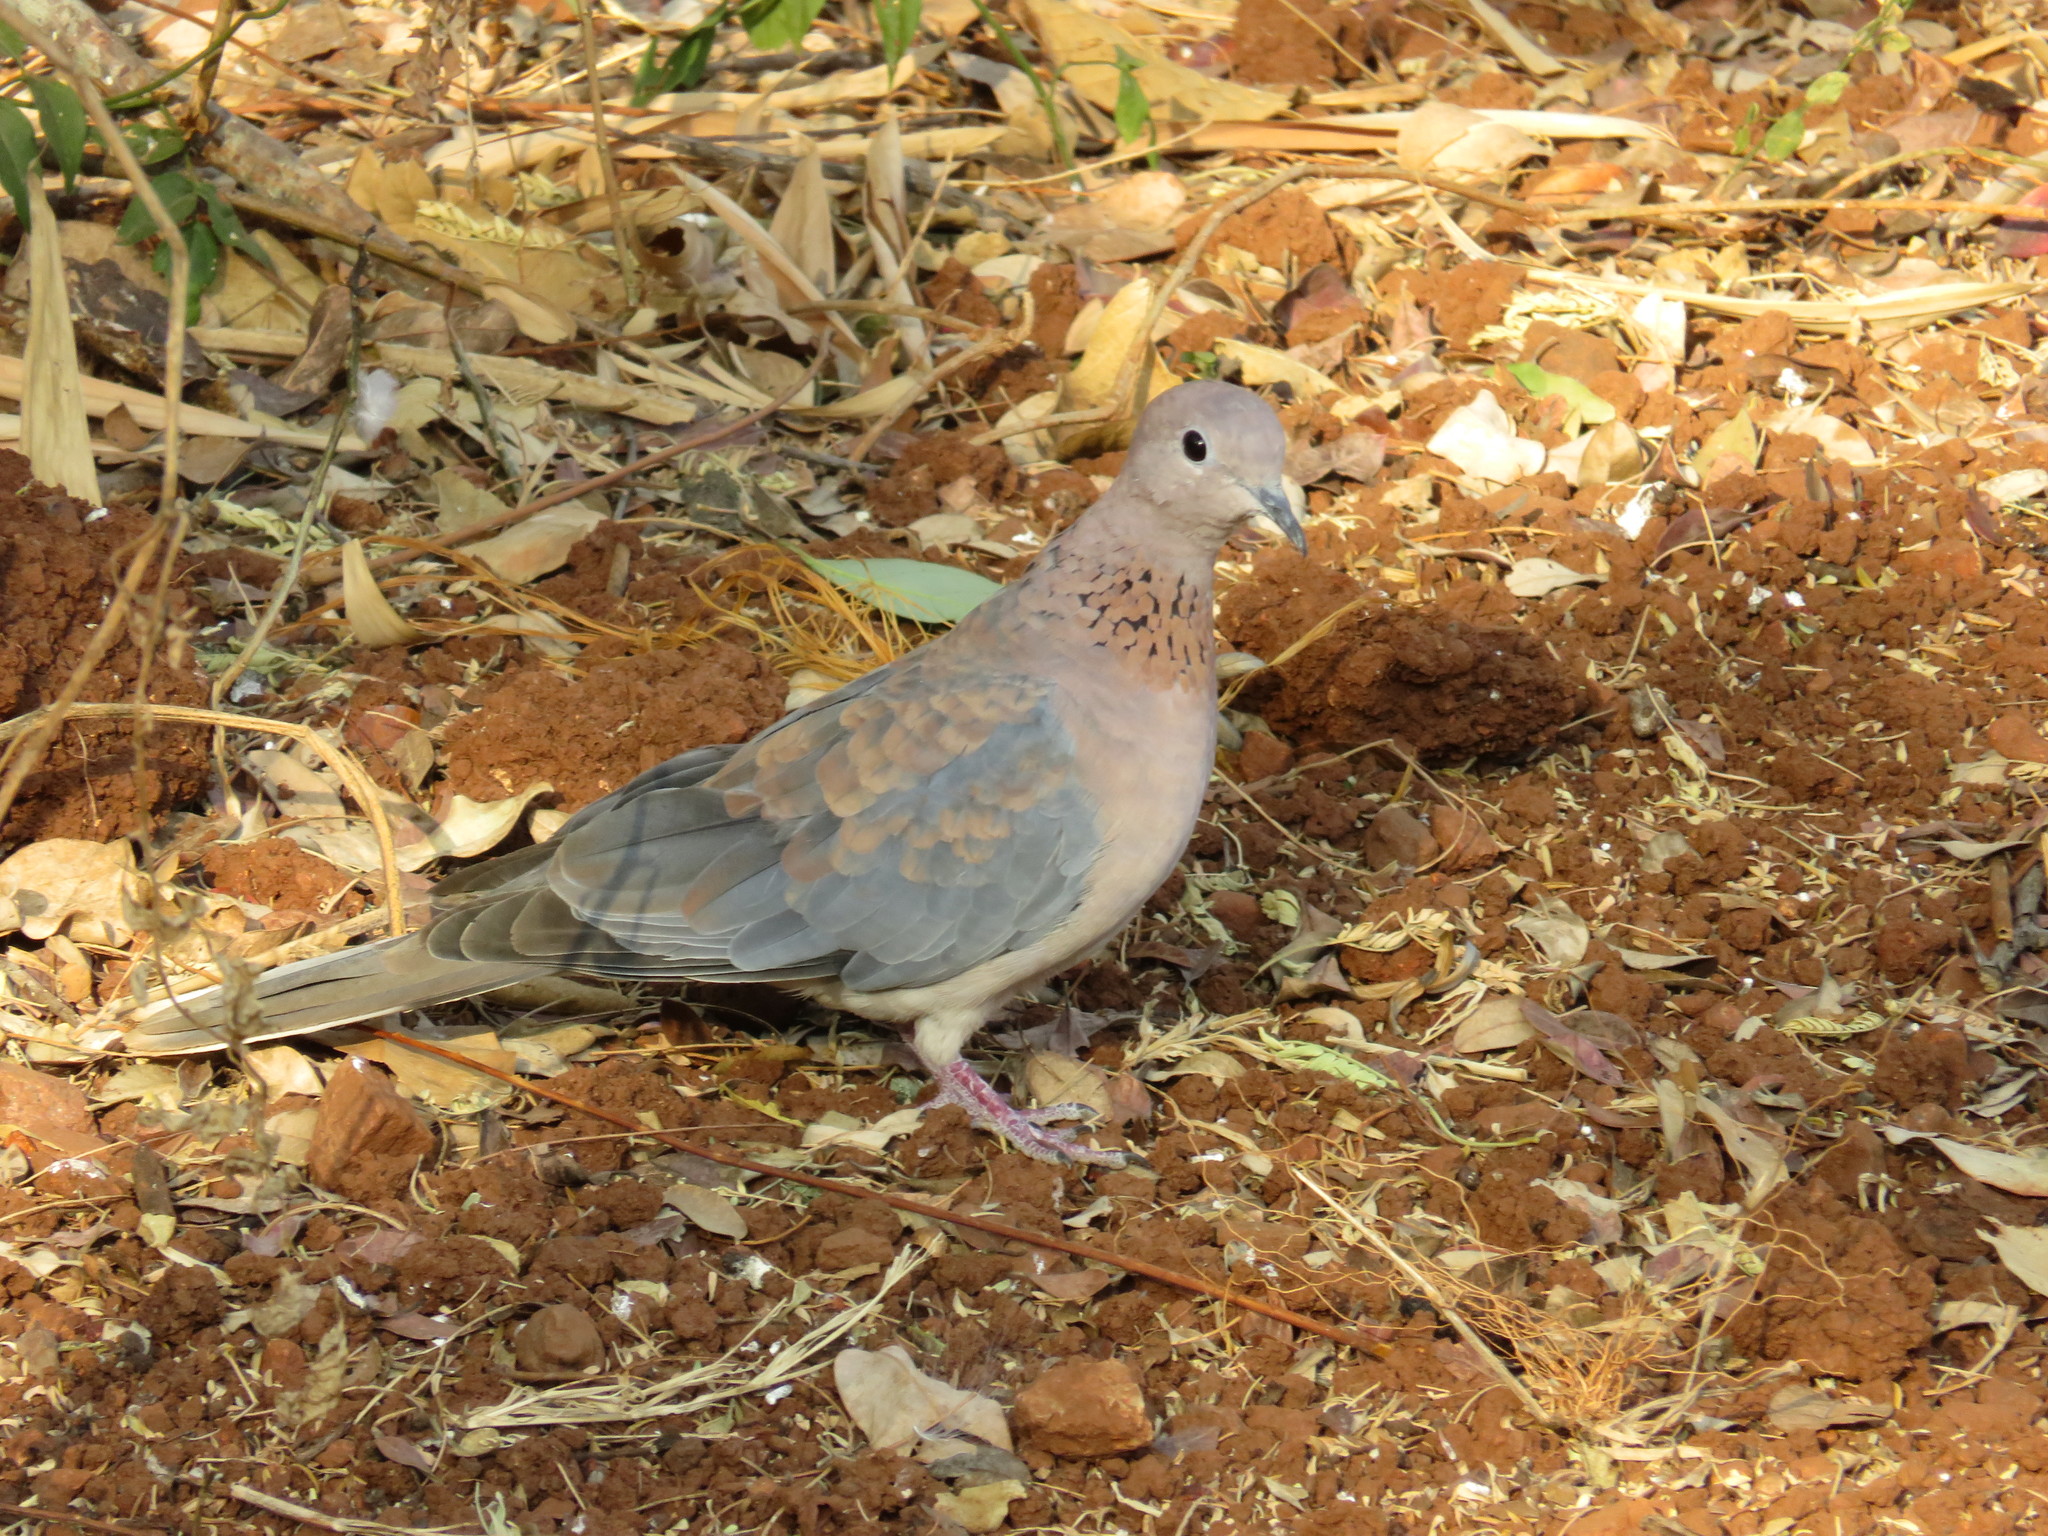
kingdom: Animalia
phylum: Chordata
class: Aves
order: Columbiformes
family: Columbidae
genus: Spilopelia
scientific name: Spilopelia senegalensis
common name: Laughing dove
